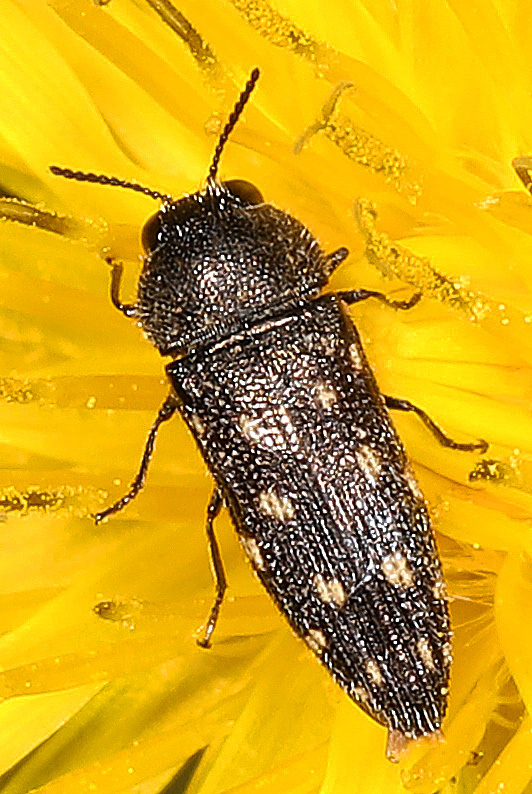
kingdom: Animalia
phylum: Arthropoda
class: Insecta
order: Coleoptera
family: Buprestidae
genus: Acmaeodera
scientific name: Acmaeodera tubulus
